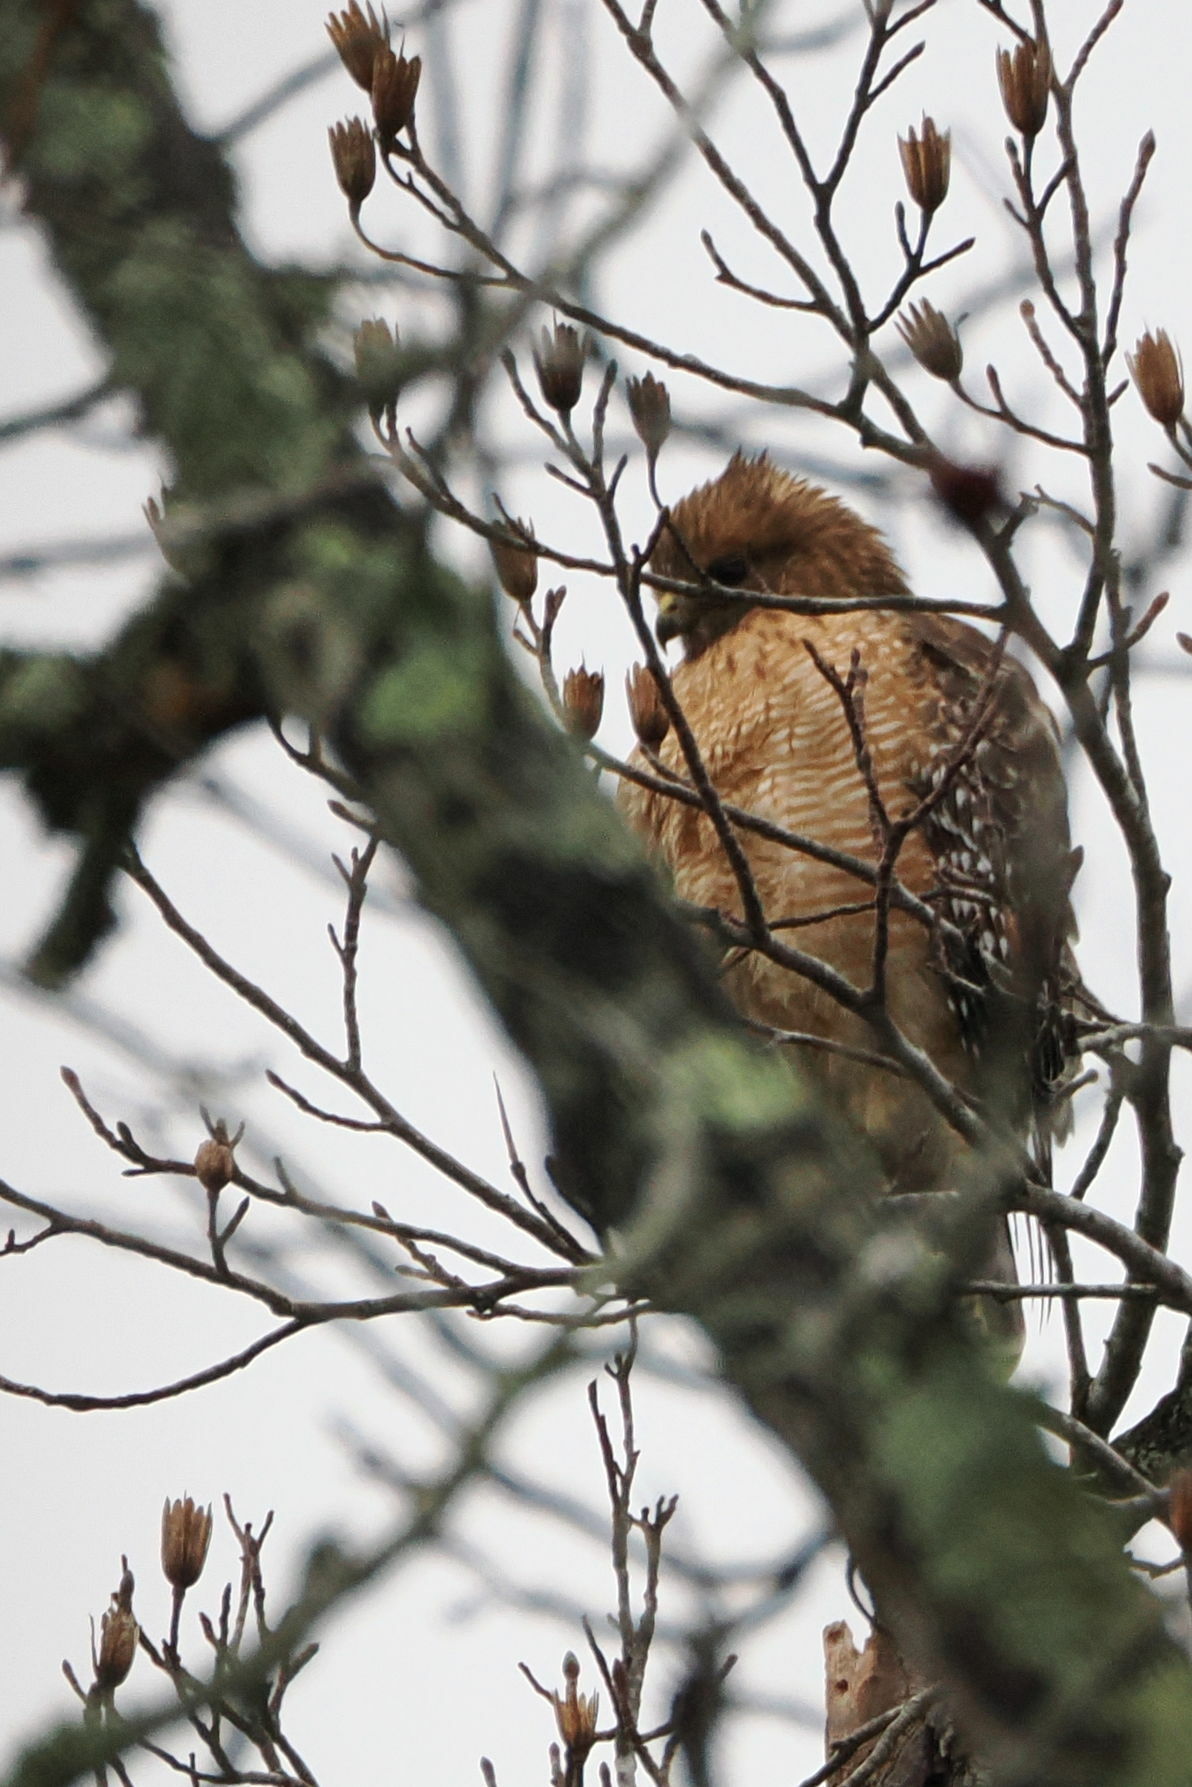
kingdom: Animalia
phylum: Chordata
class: Aves
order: Accipitriformes
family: Accipitridae
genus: Buteo
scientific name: Buteo lineatus
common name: Red-shouldered hawk
